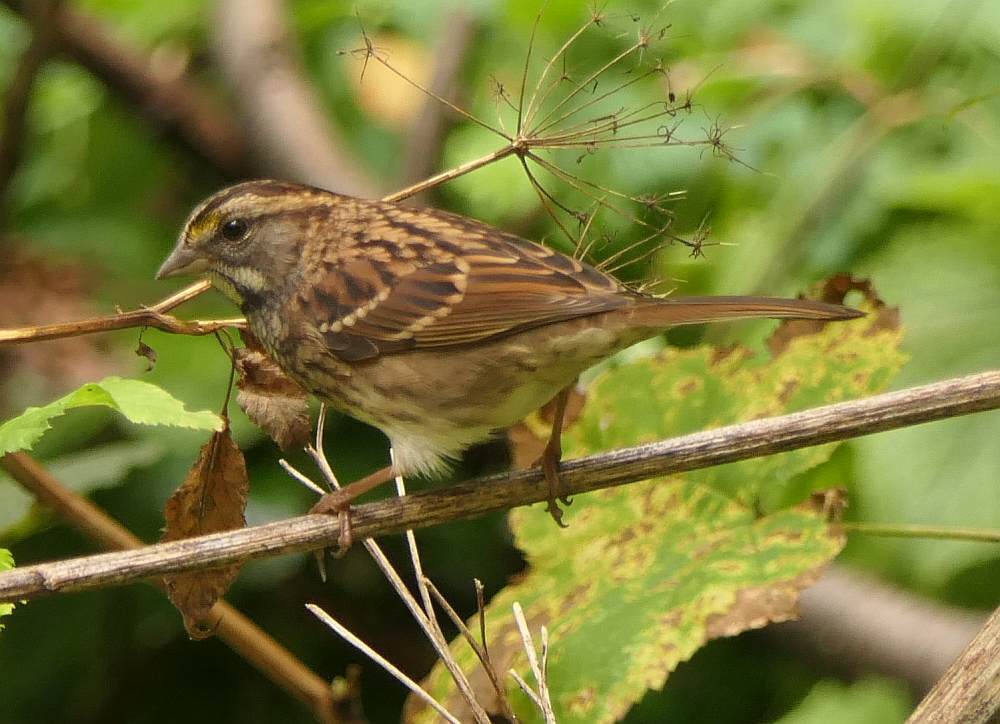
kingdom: Animalia
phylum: Chordata
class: Aves
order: Passeriformes
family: Passerellidae
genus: Zonotrichia
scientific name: Zonotrichia albicollis
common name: White-throated sparrow
